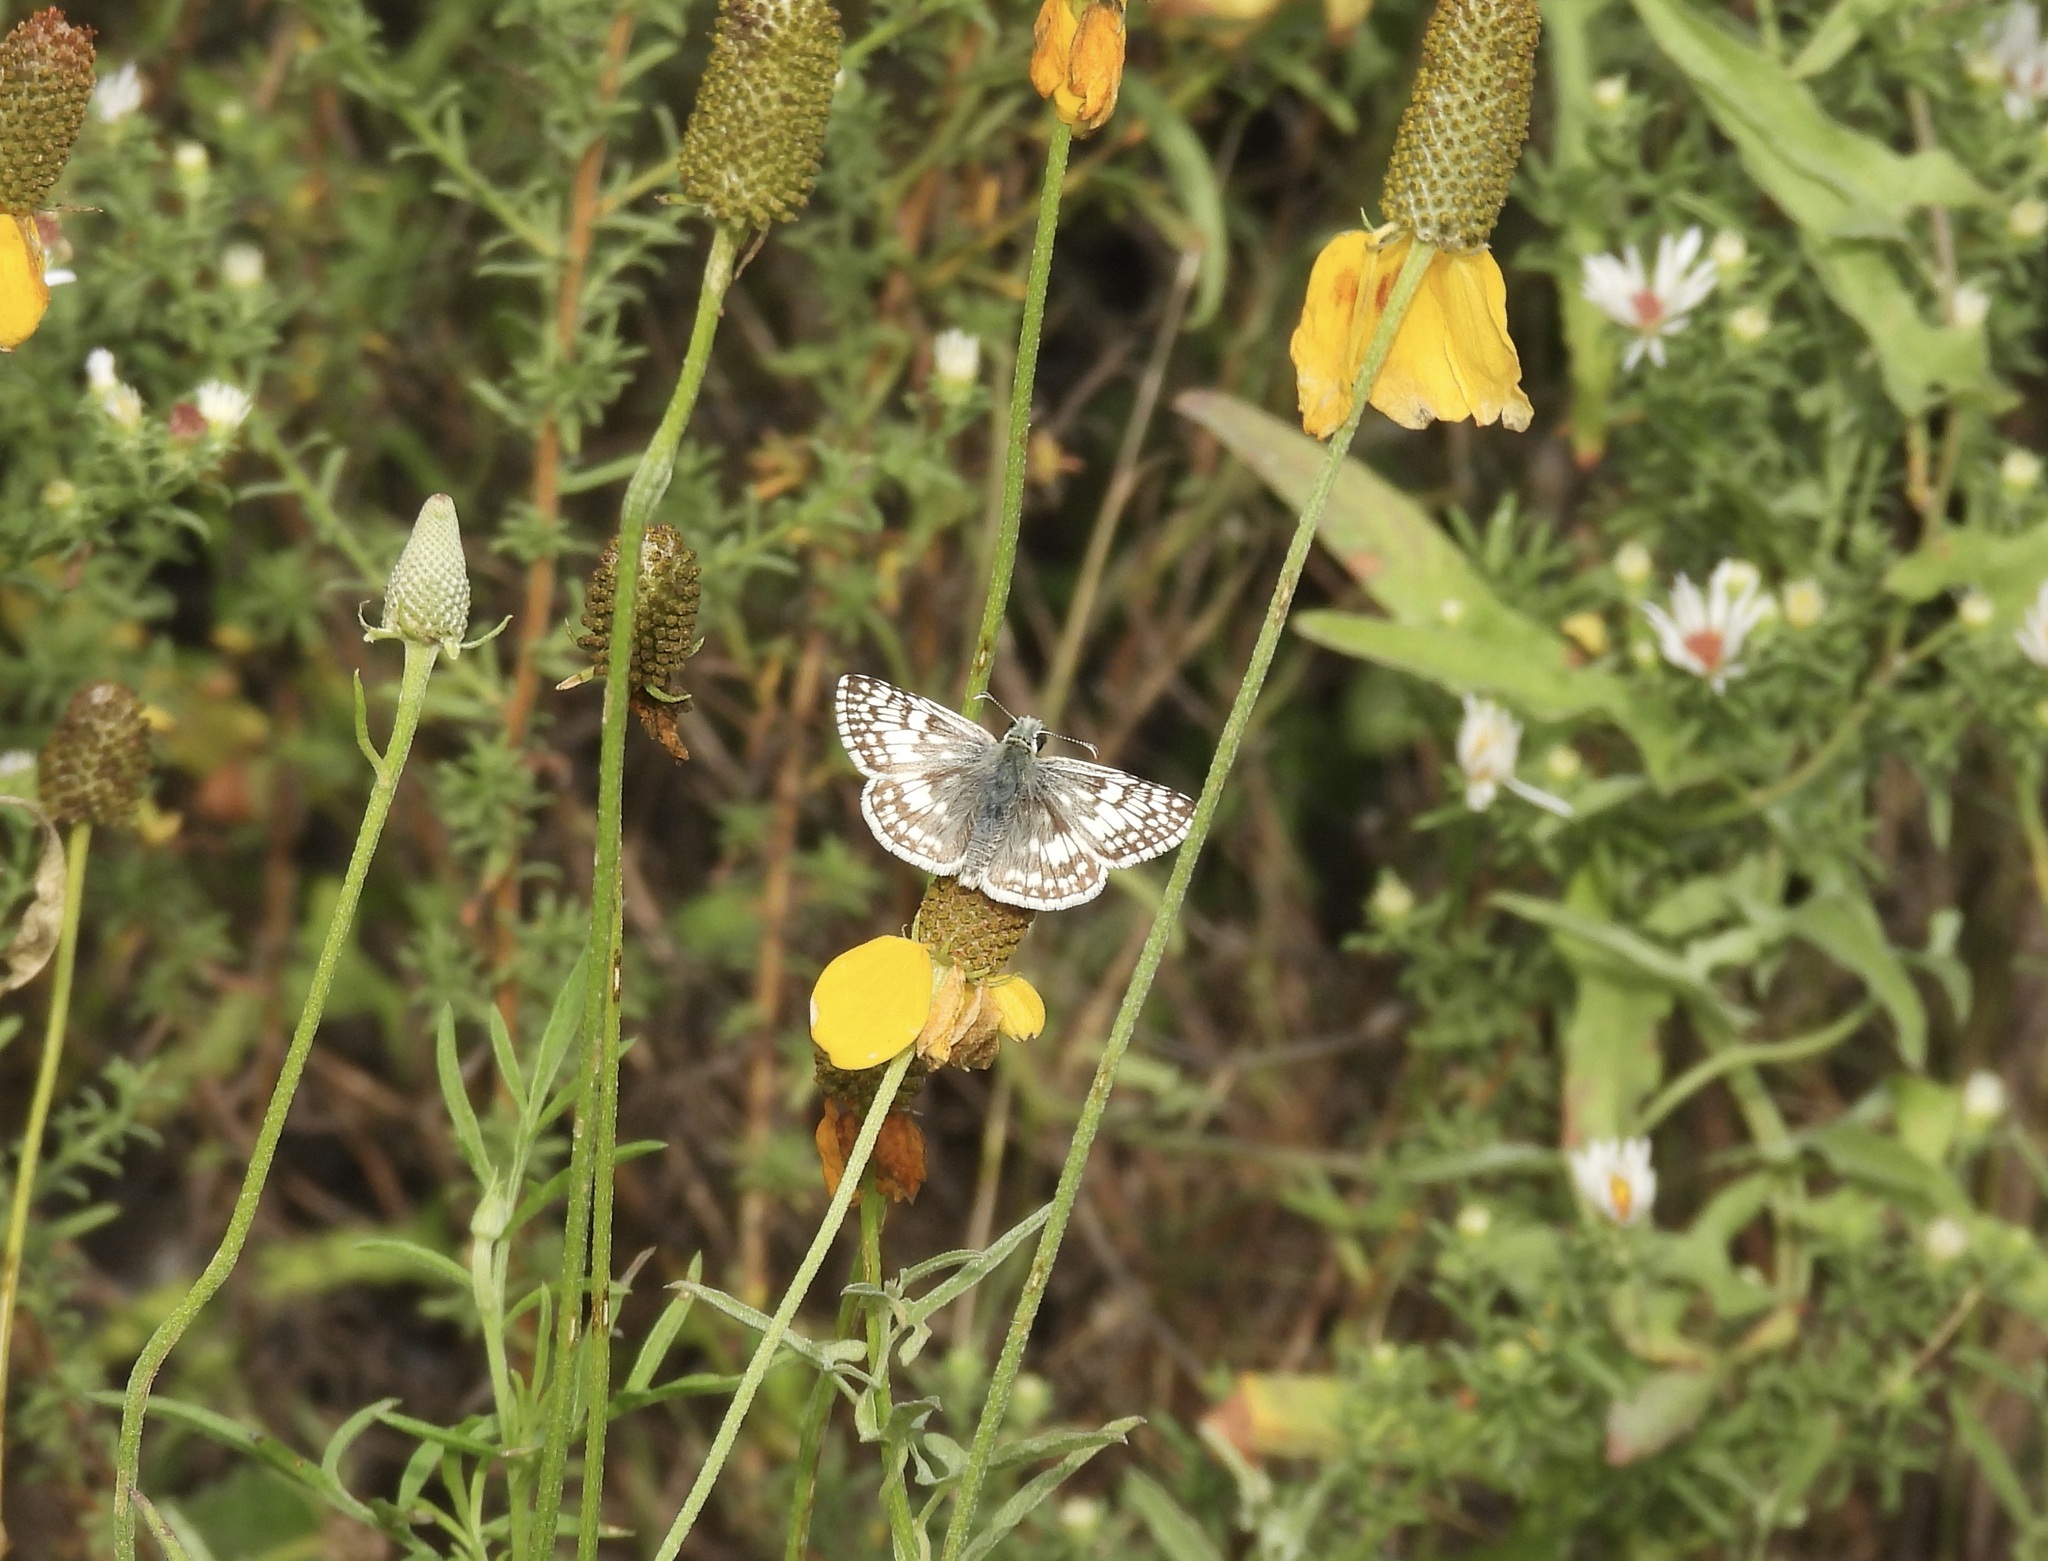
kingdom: Animalia
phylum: Arthropoda
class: Insecta
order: Lepidoptera
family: Hesperiidae
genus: Burnsius
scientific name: Burnsius
